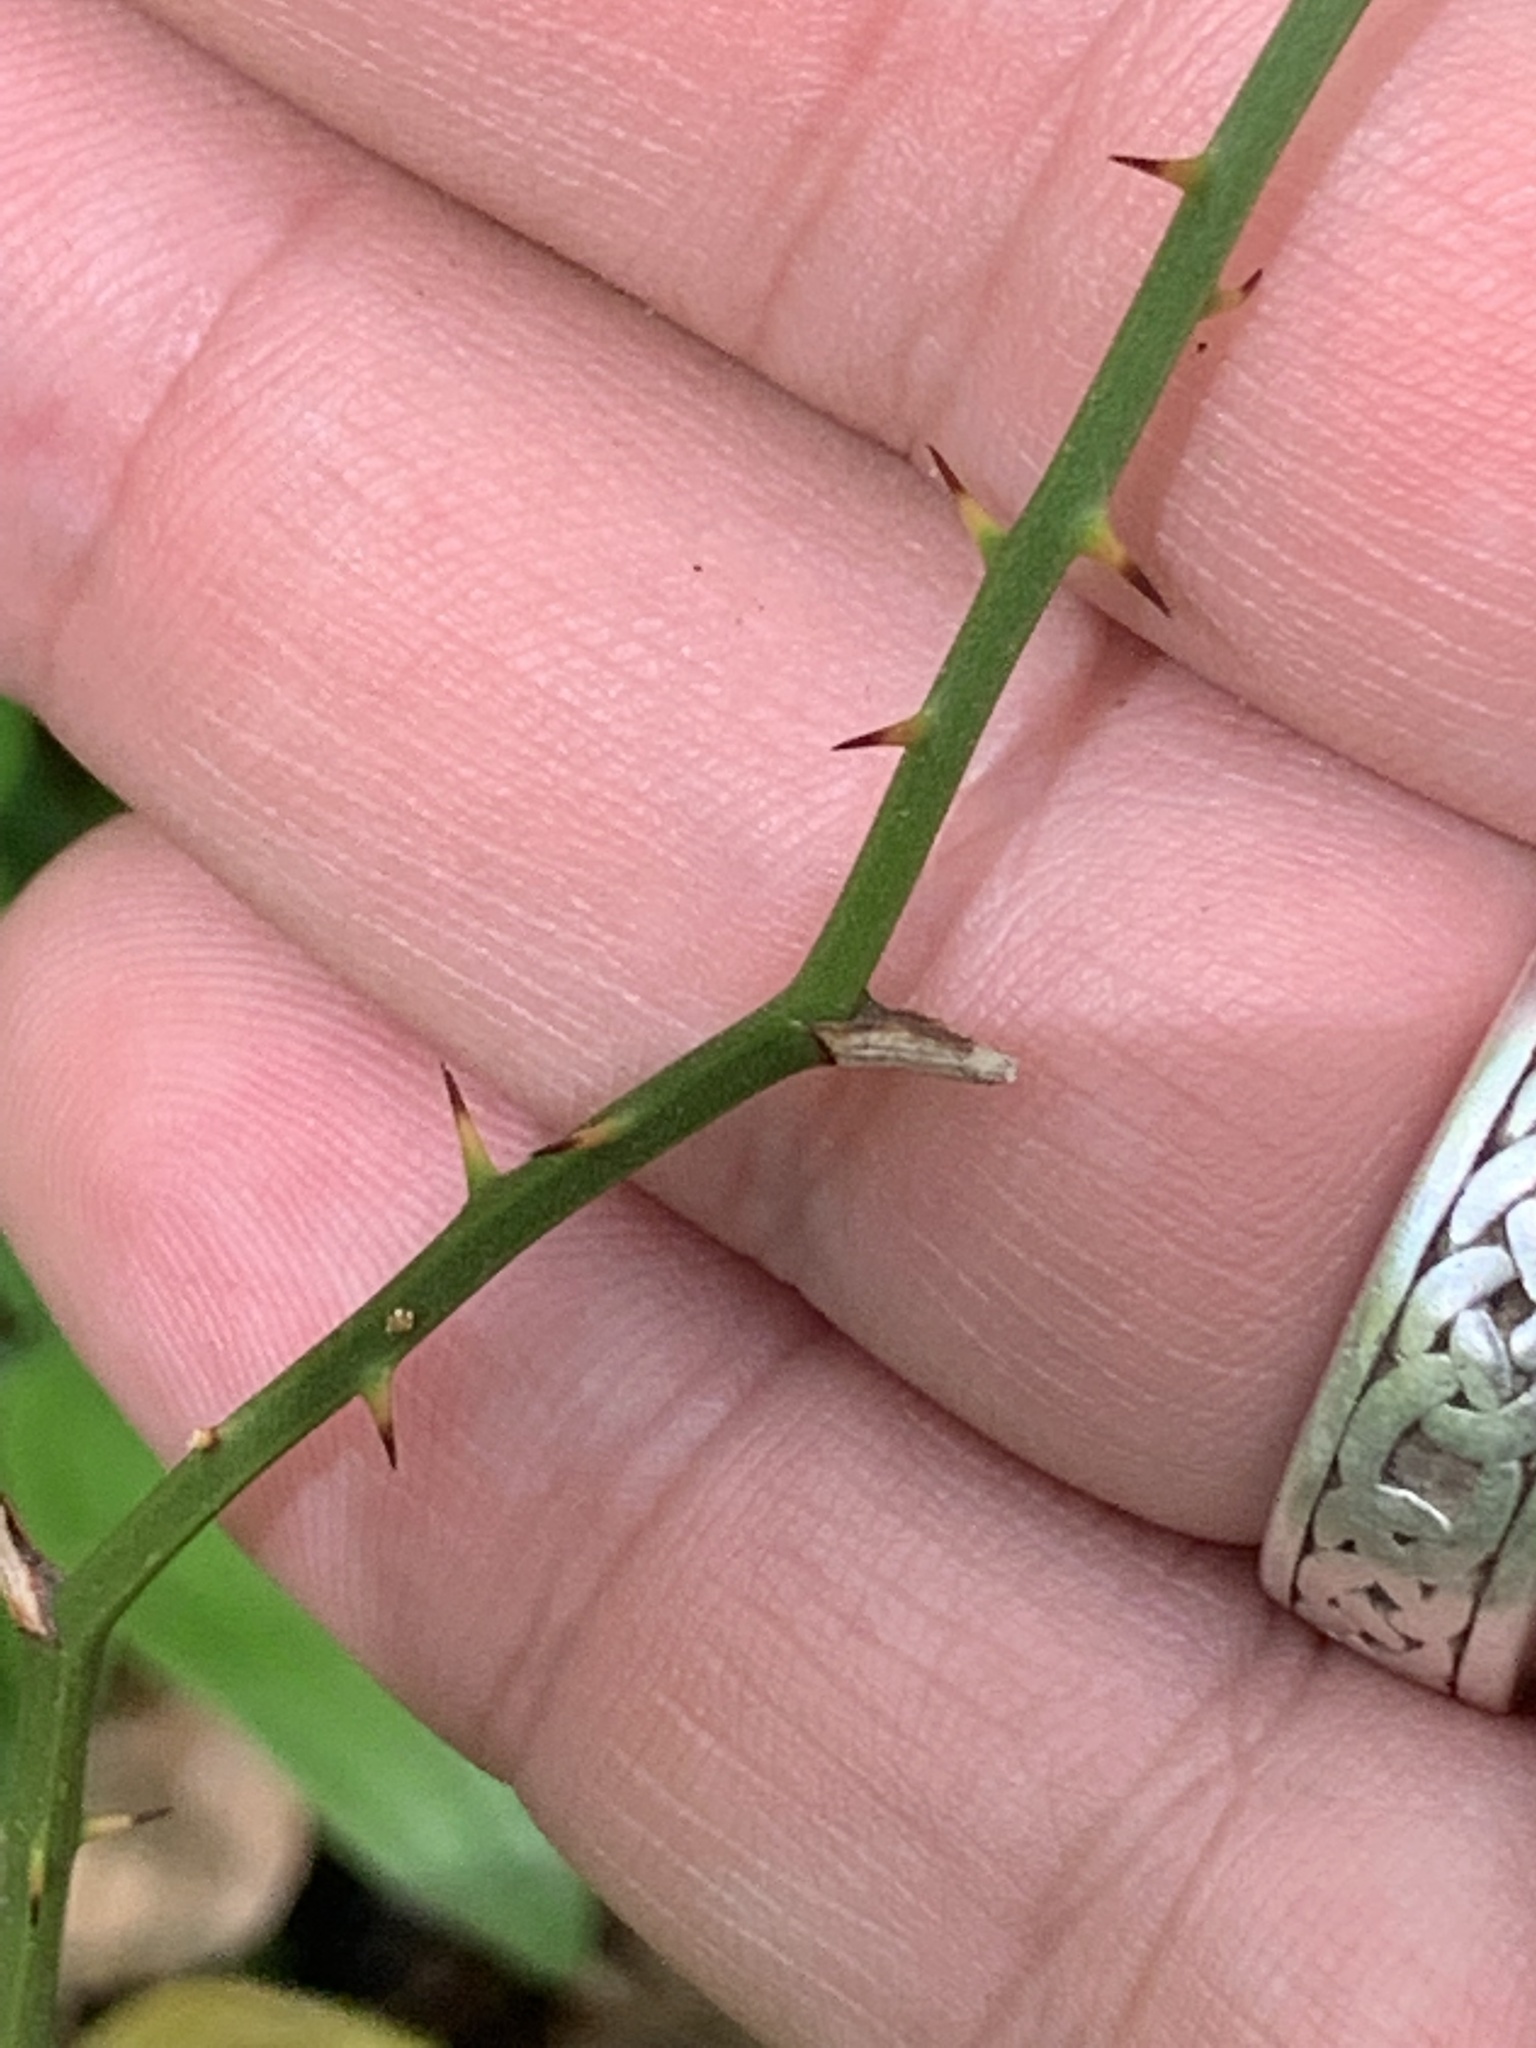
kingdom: Plantae
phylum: Tracheophyta
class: Liliopsida
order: Liliales
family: Smilacaceae
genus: Smilax
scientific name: Smilax rotundifolia
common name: Bullbriar
